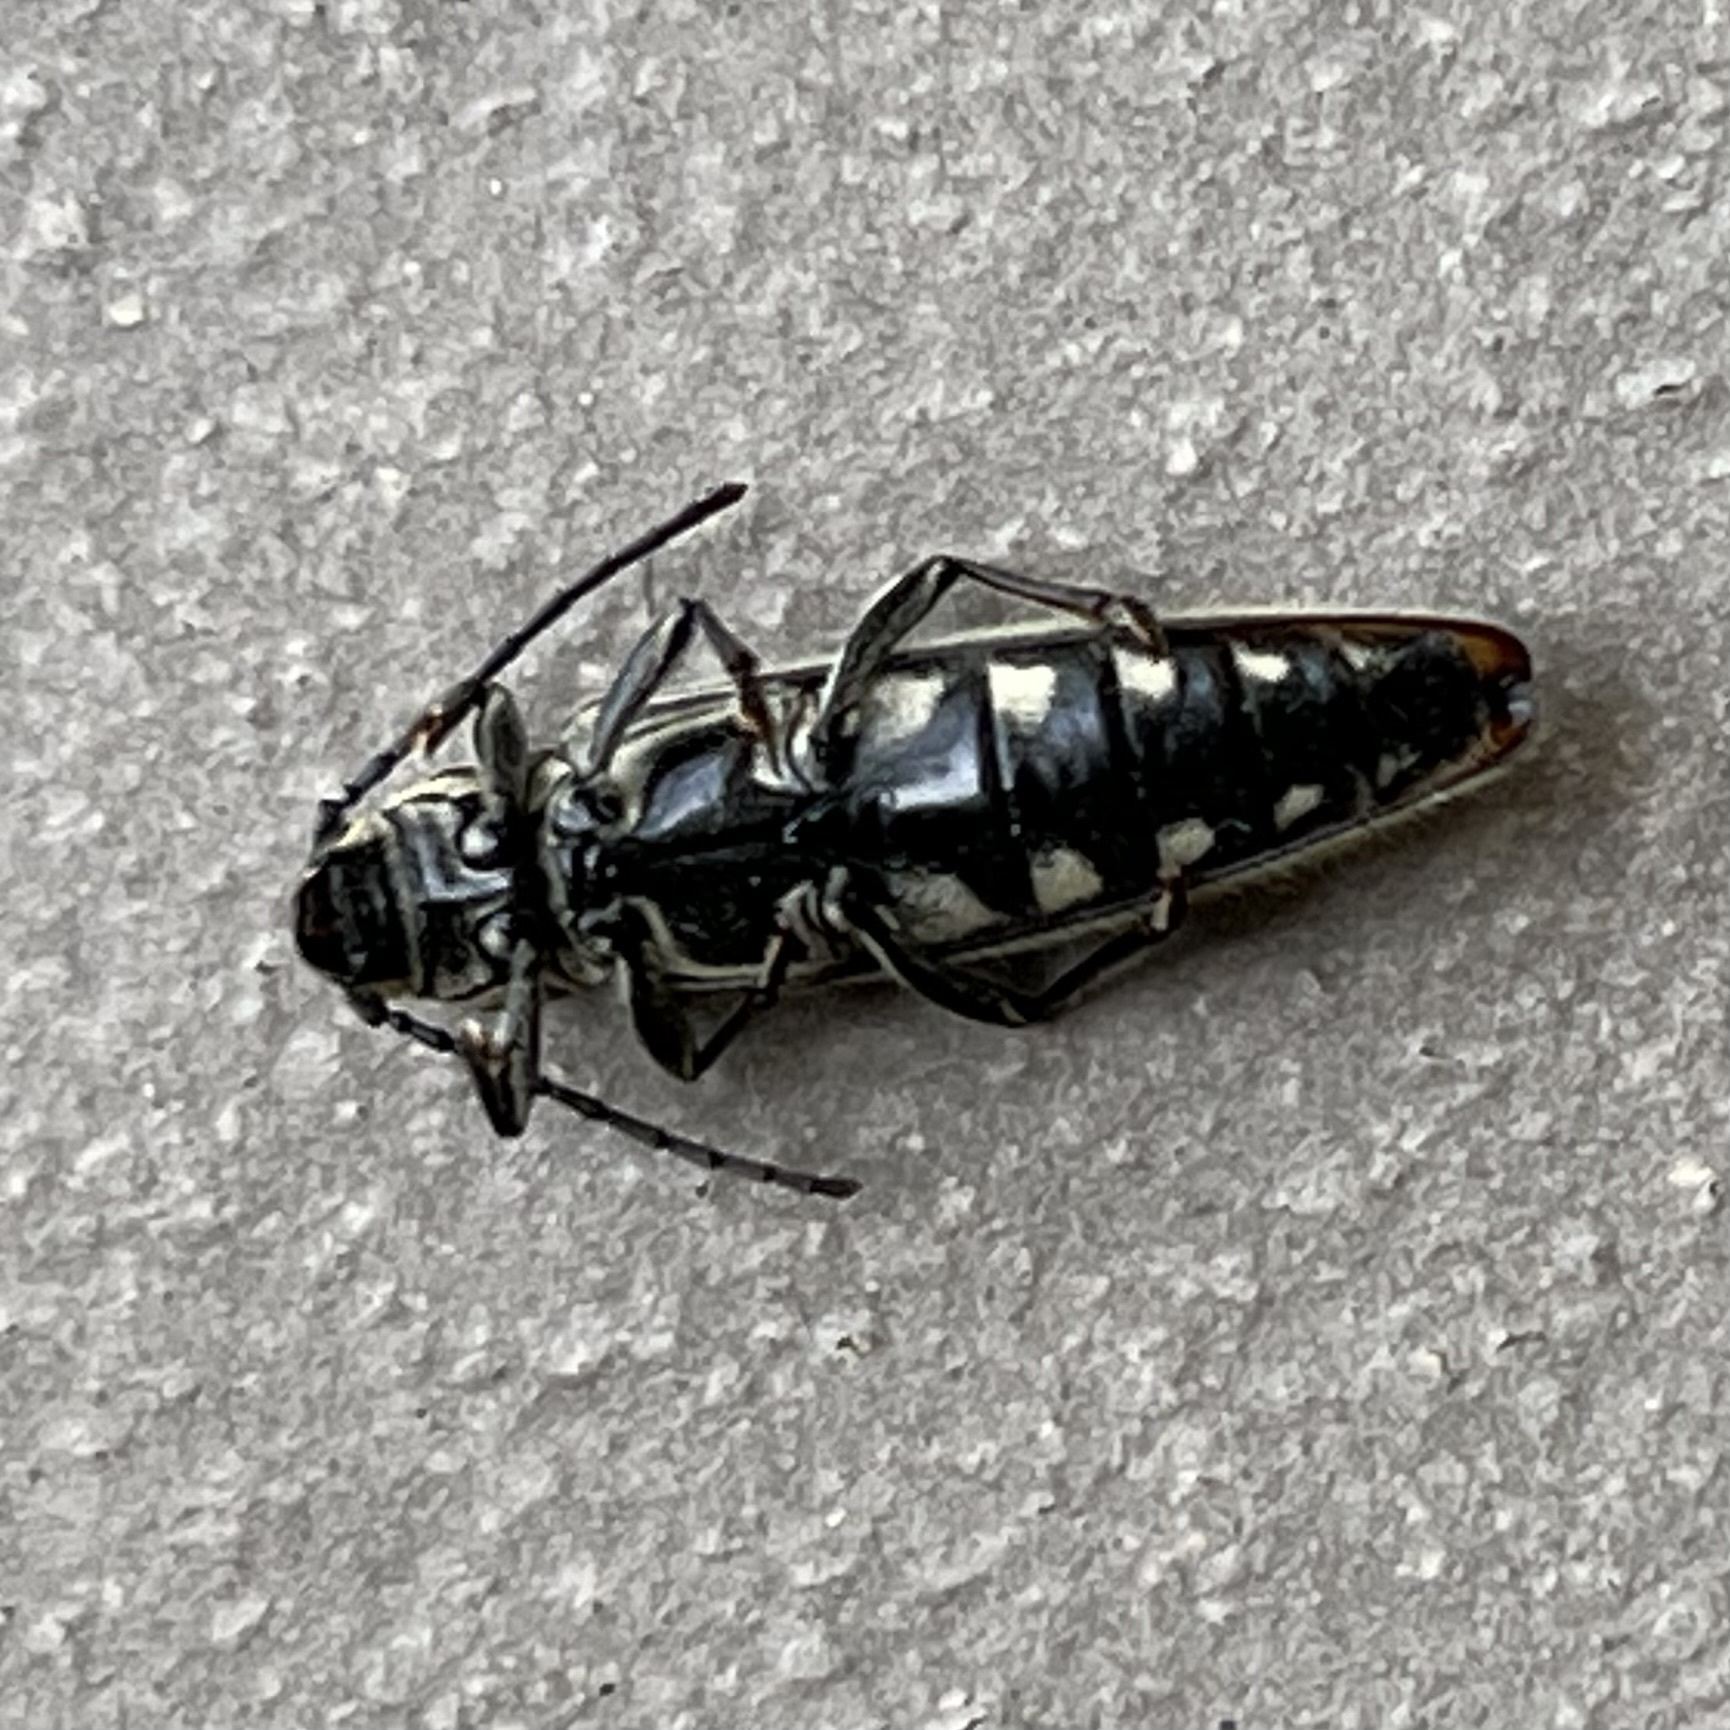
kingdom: Animalia
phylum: Arthropoda
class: Insecta
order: Coleoptera
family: Cerambycidae
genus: Osmopleura
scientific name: Osmopleura chamaeropis
